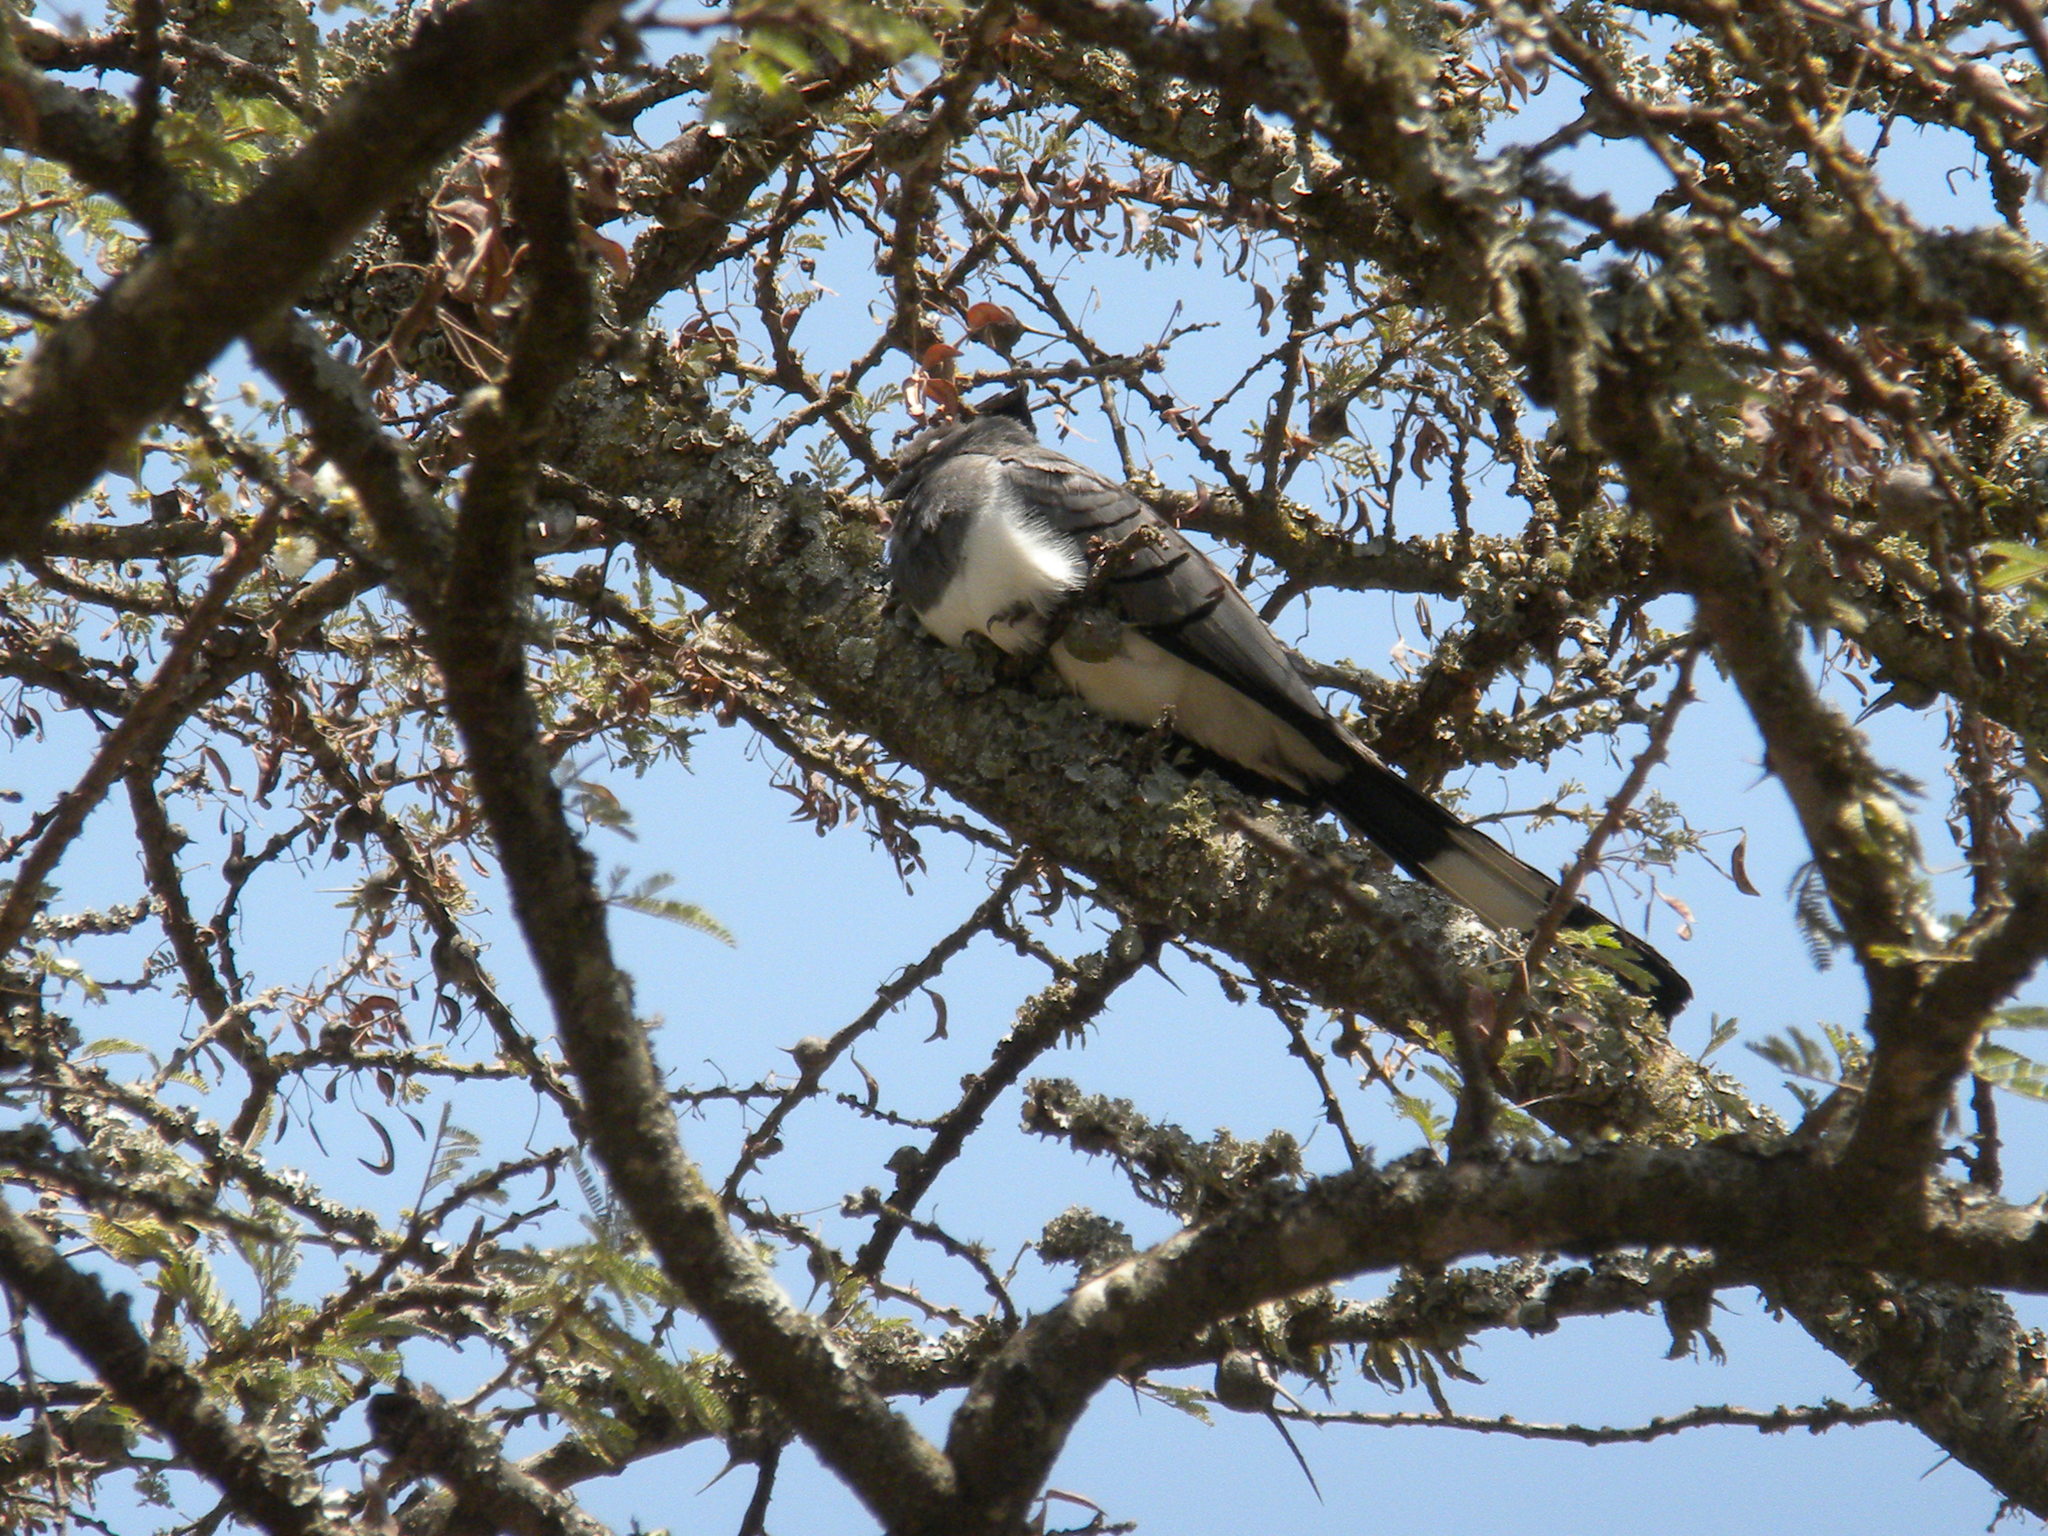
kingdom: Animalia
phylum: Chordata
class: Aves
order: Musophagiformes
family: Musophagidae
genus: Corythaixoides
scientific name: Corythaixoides leucogaster
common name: White-bellied go-away-bird
